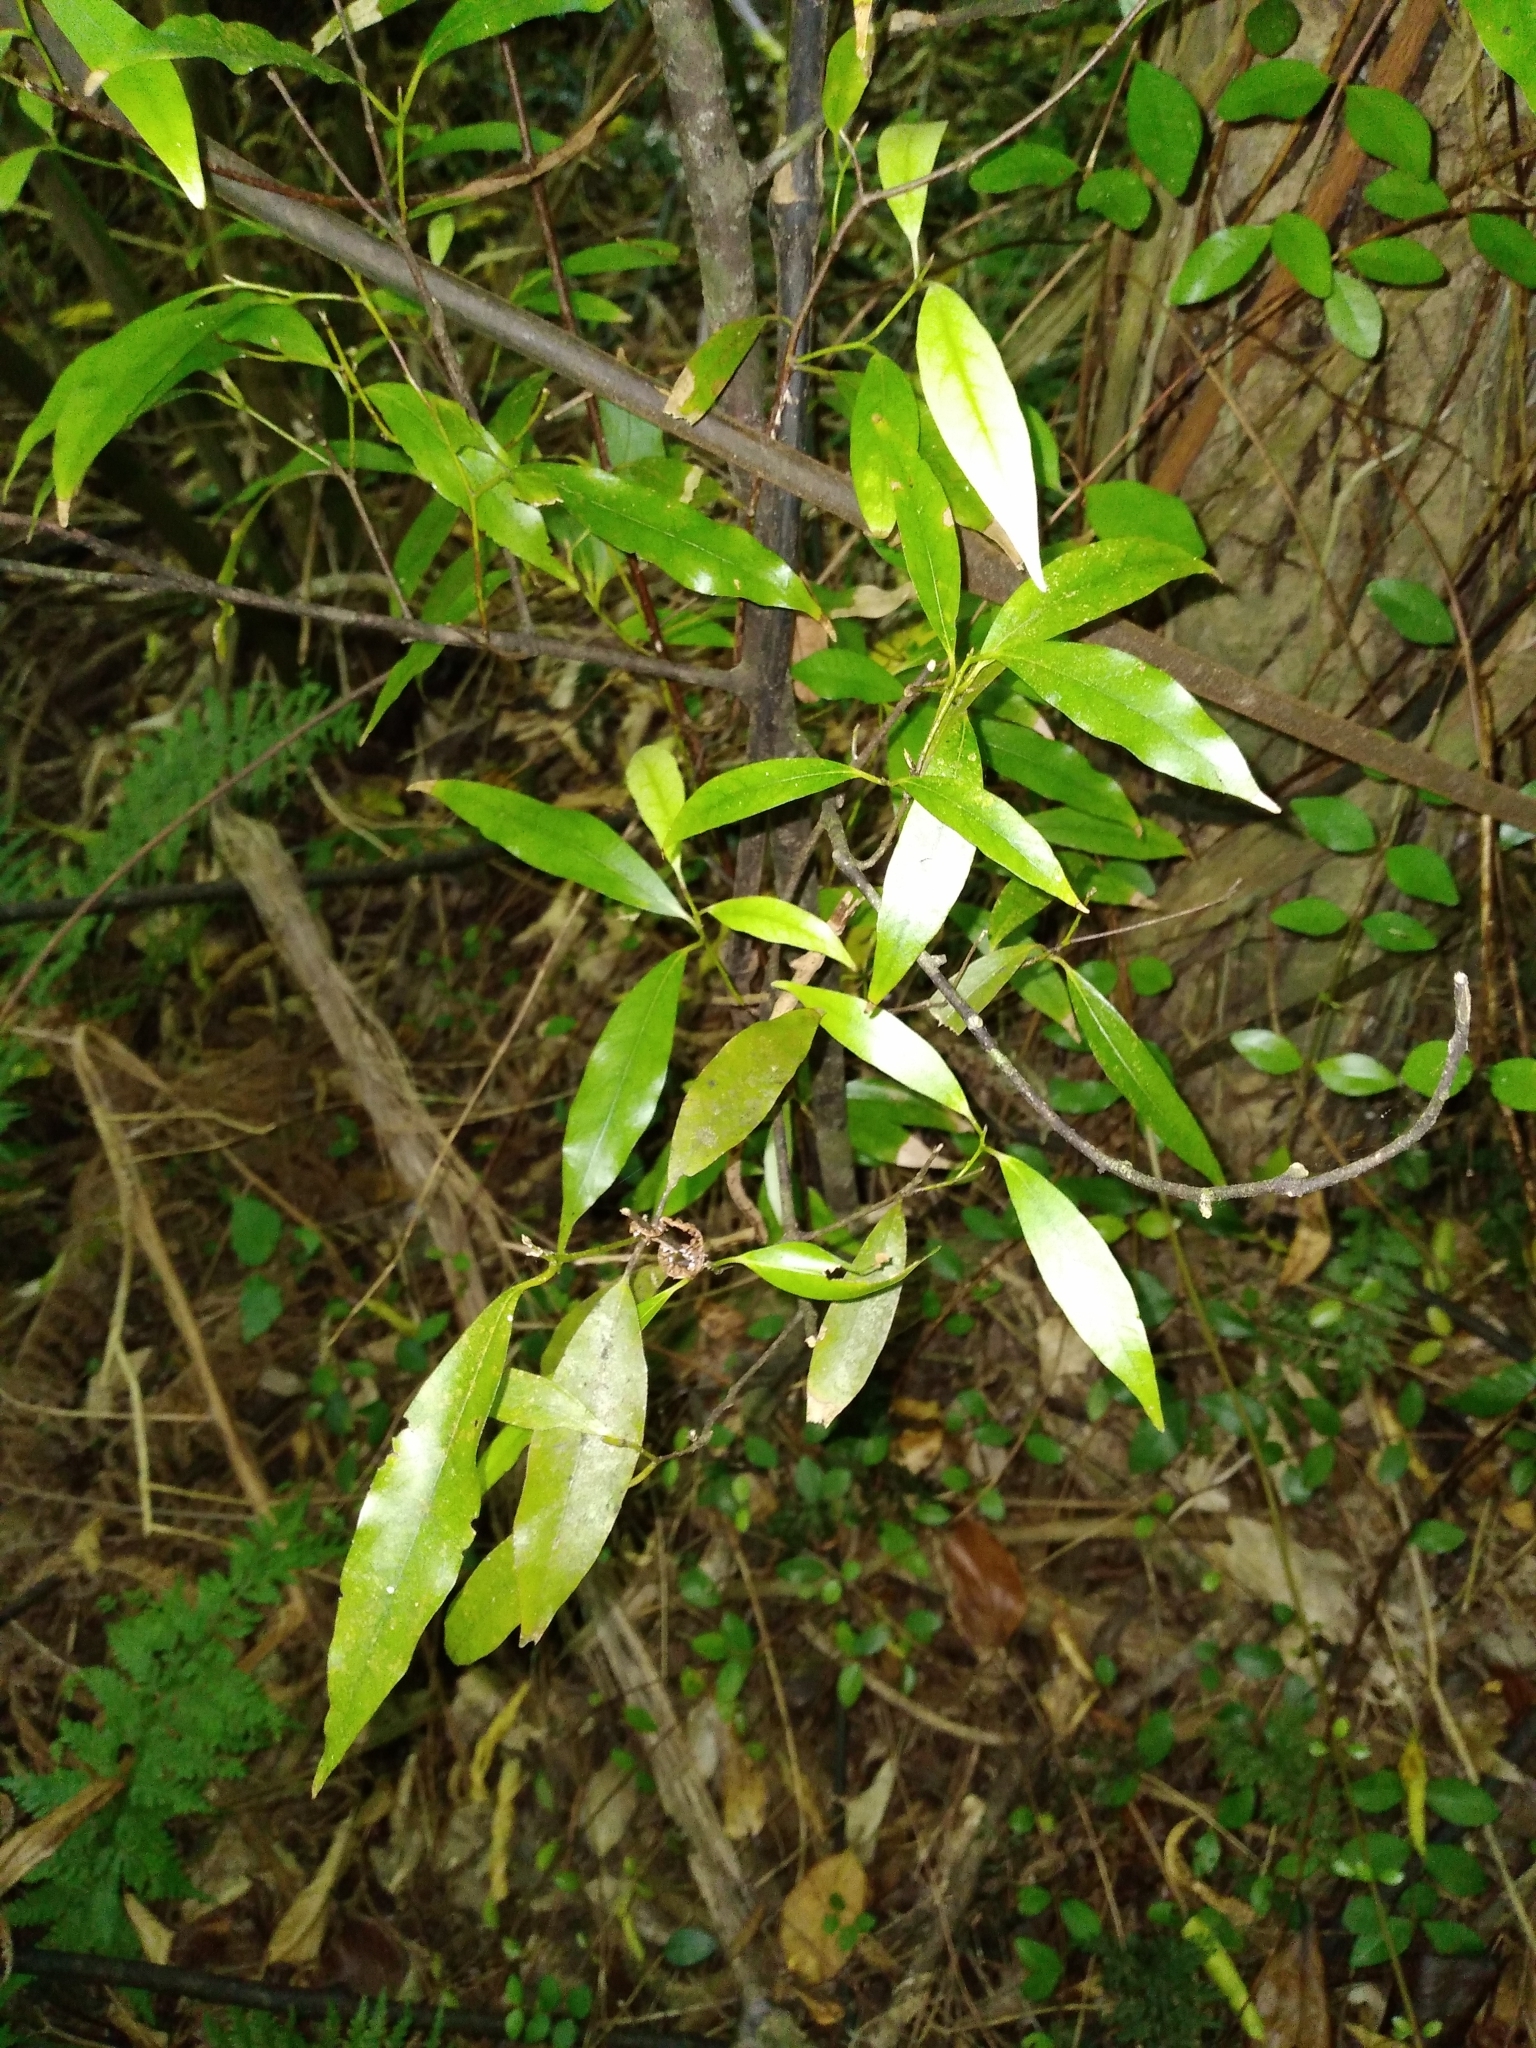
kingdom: Plantae
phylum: Tracheophyta
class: Magnoliopsida
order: Laurales
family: Lauraceae
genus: Beilschmiedia
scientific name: Beilschmiedia tawa
